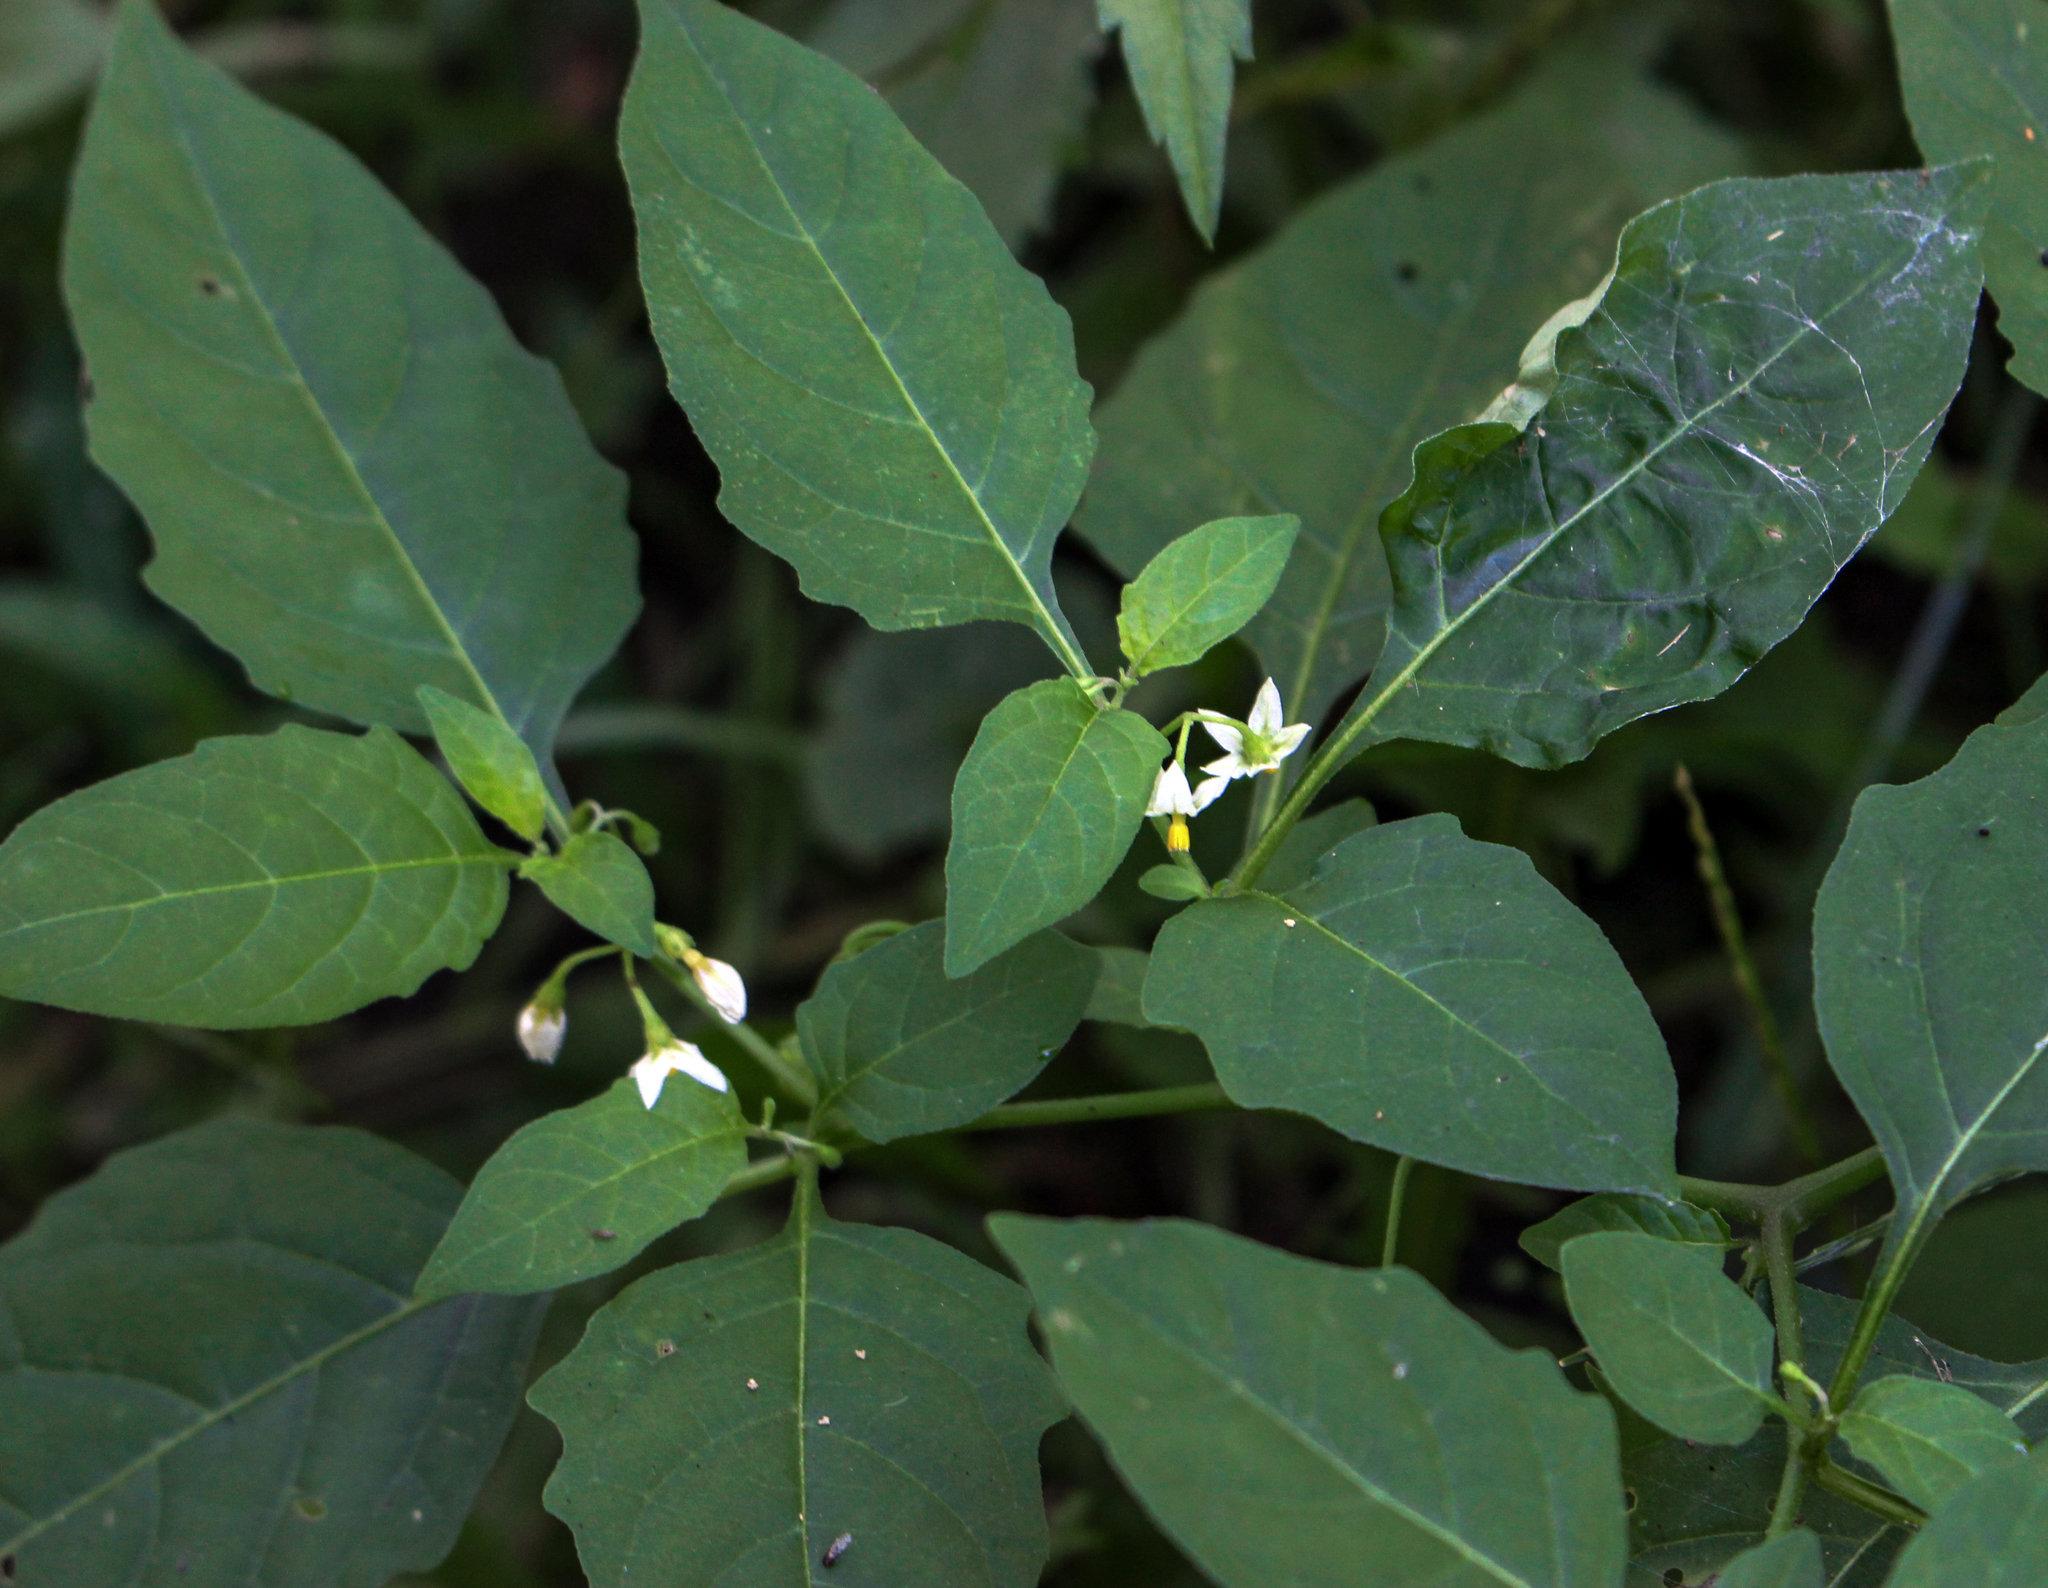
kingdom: Plantae
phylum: Tracheophyta
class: Magnoliopsida
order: Solanales
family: Solanaceae
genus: Solanum
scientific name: Solanum emulans
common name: Eastern black nightshade
